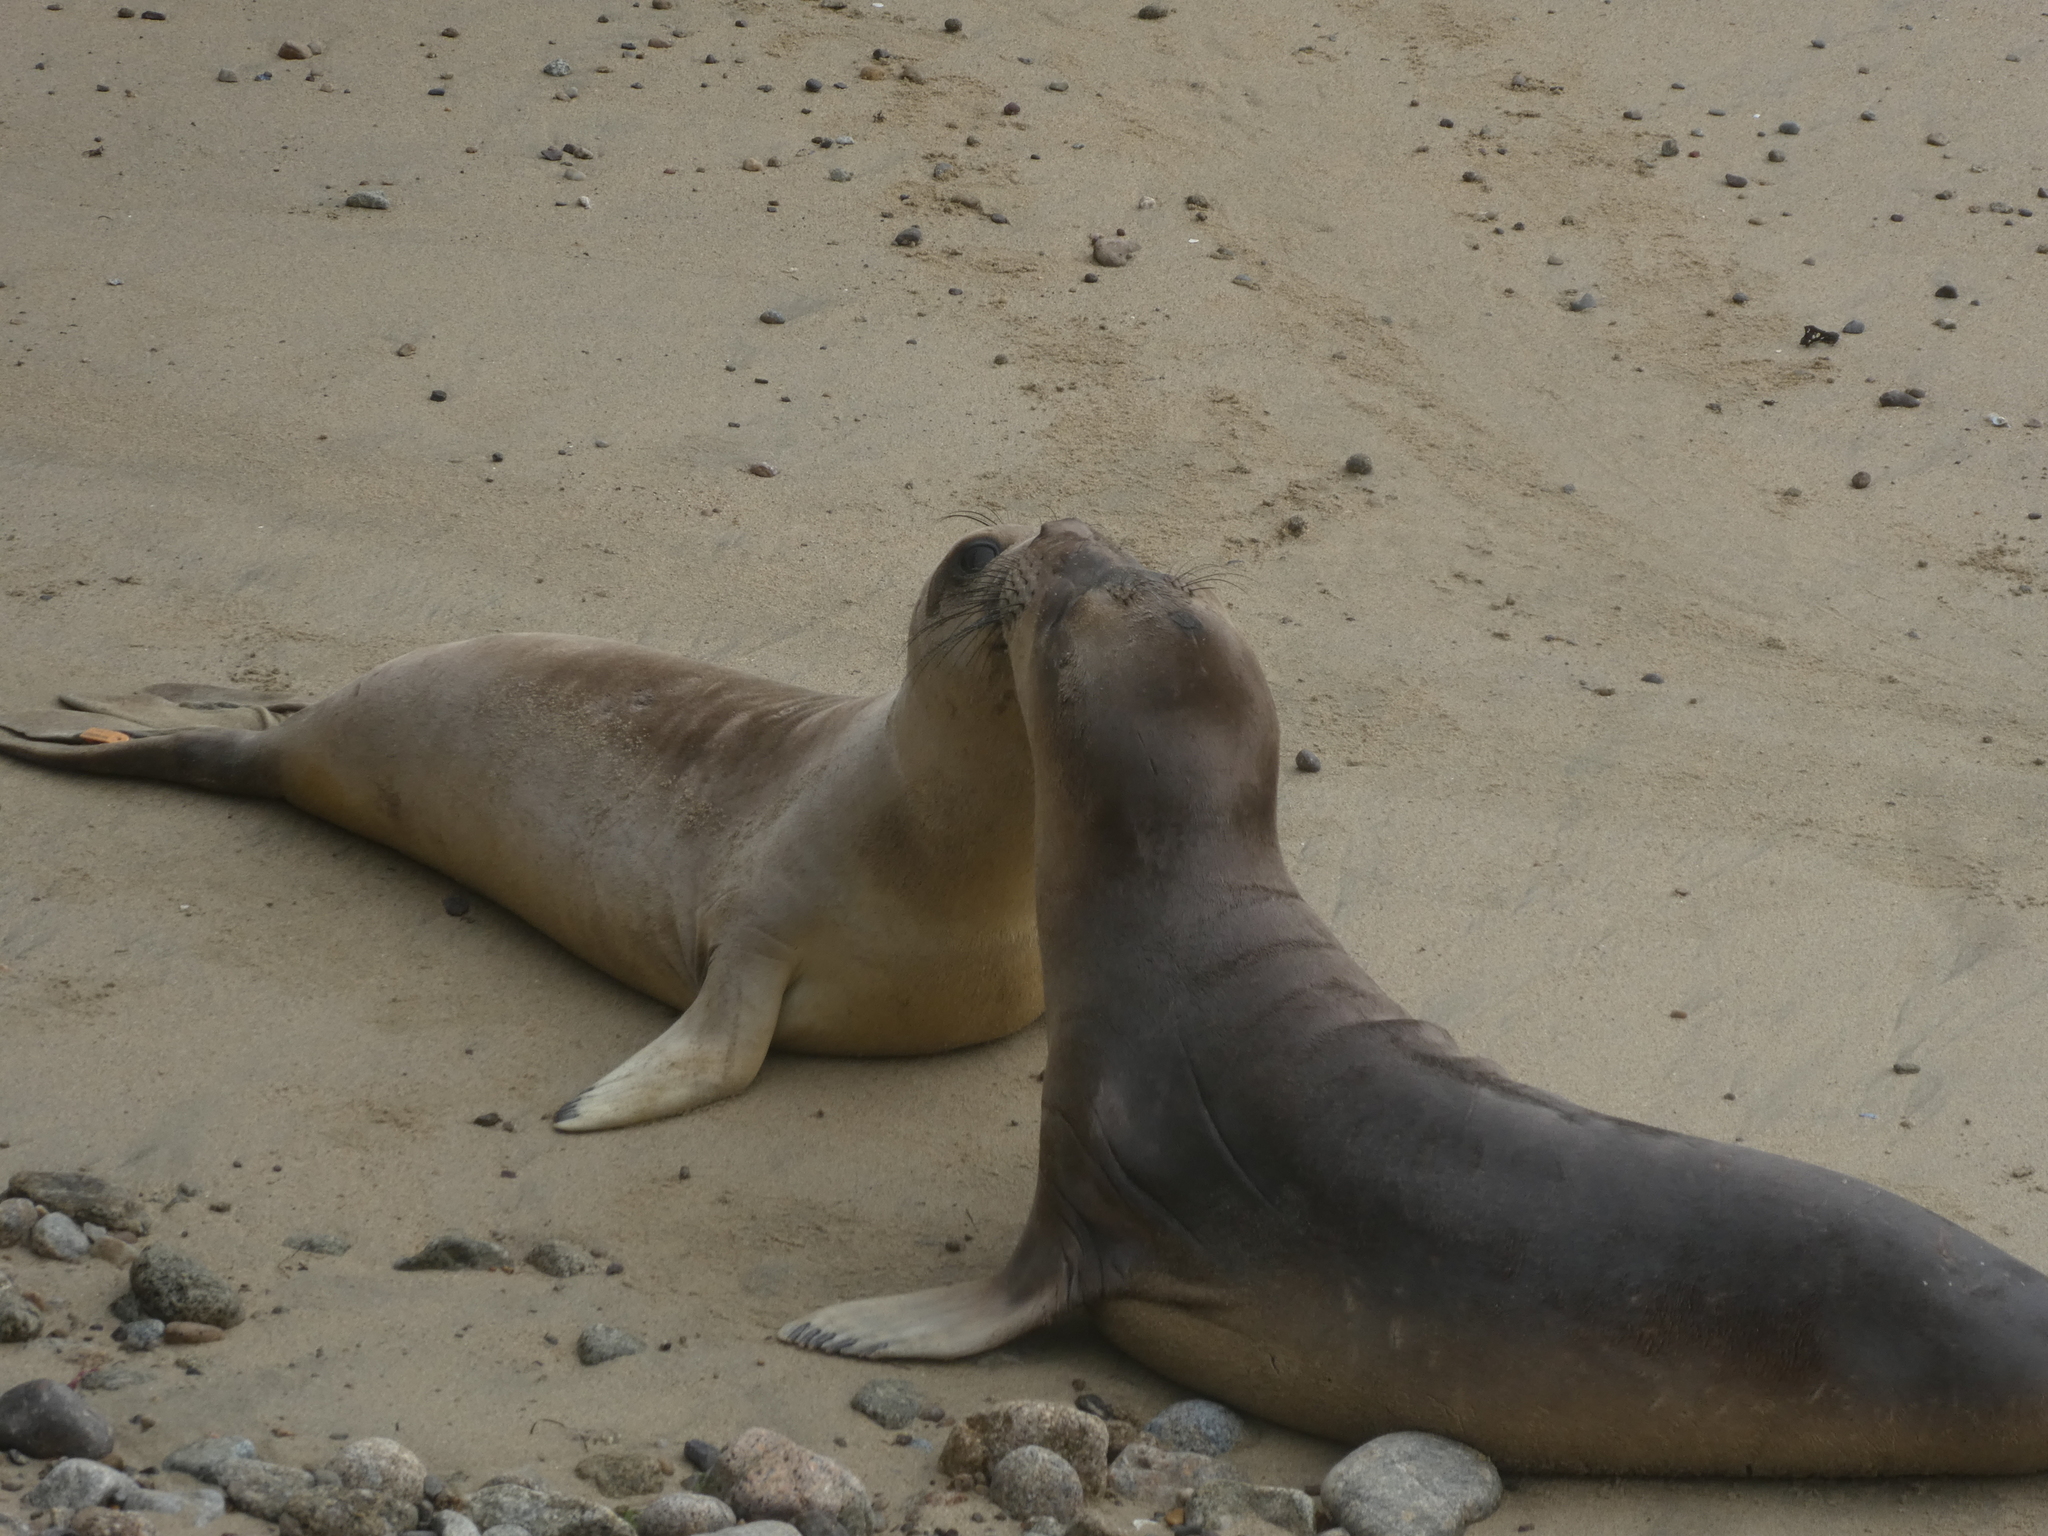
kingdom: Animalia
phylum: Chordata
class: Mammalia
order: Carnivora
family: Phocidae
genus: Mirounga
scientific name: Mirounga angustirostris
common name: Northern elephant seal
